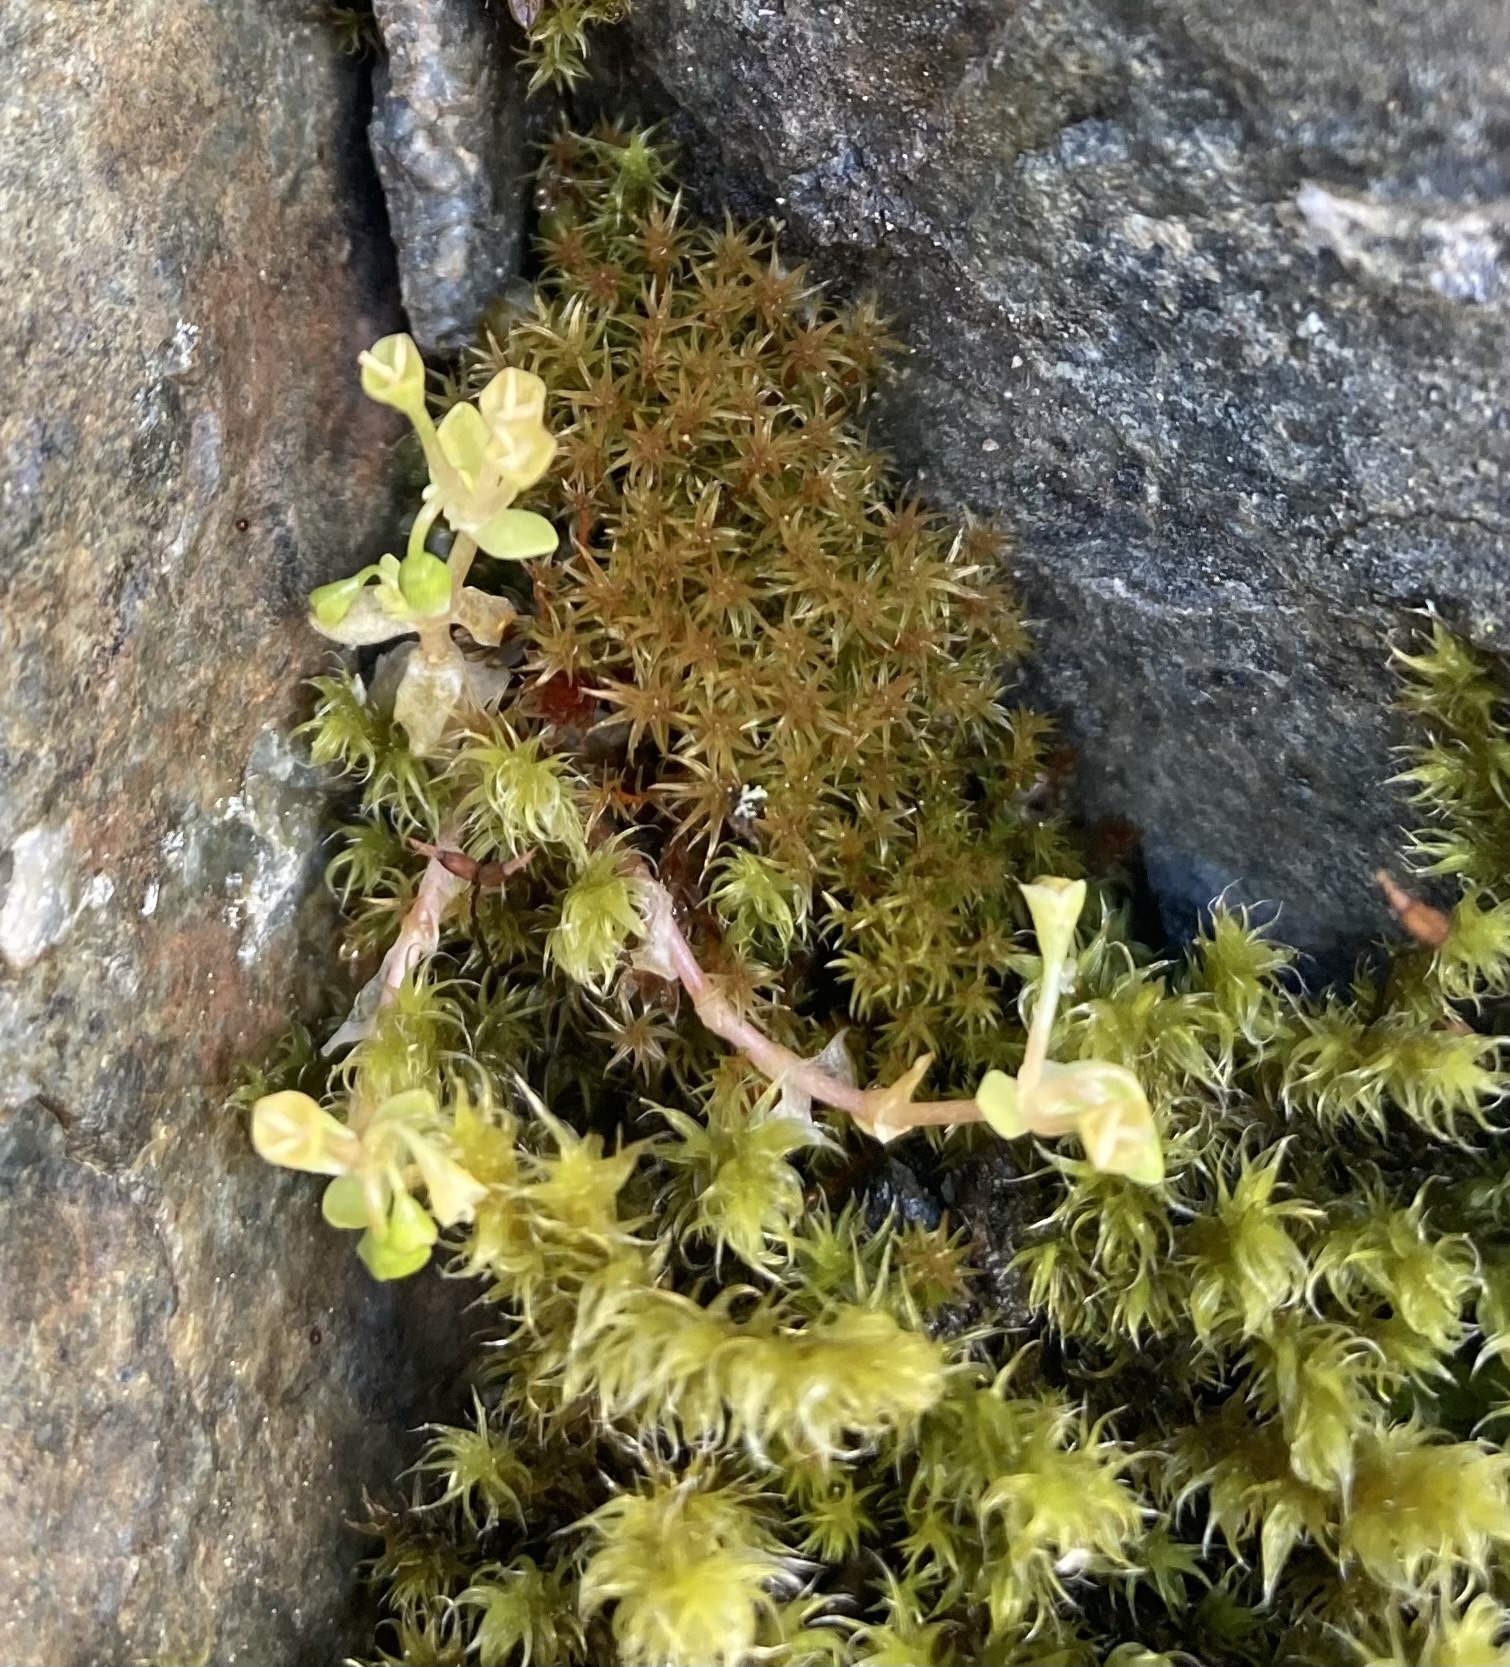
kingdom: Plantae
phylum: Tracheophyta
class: Magnoliopsida
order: Caryophyllales
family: Montiaceae
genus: Montia
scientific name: Montia fontana
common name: Blinks
